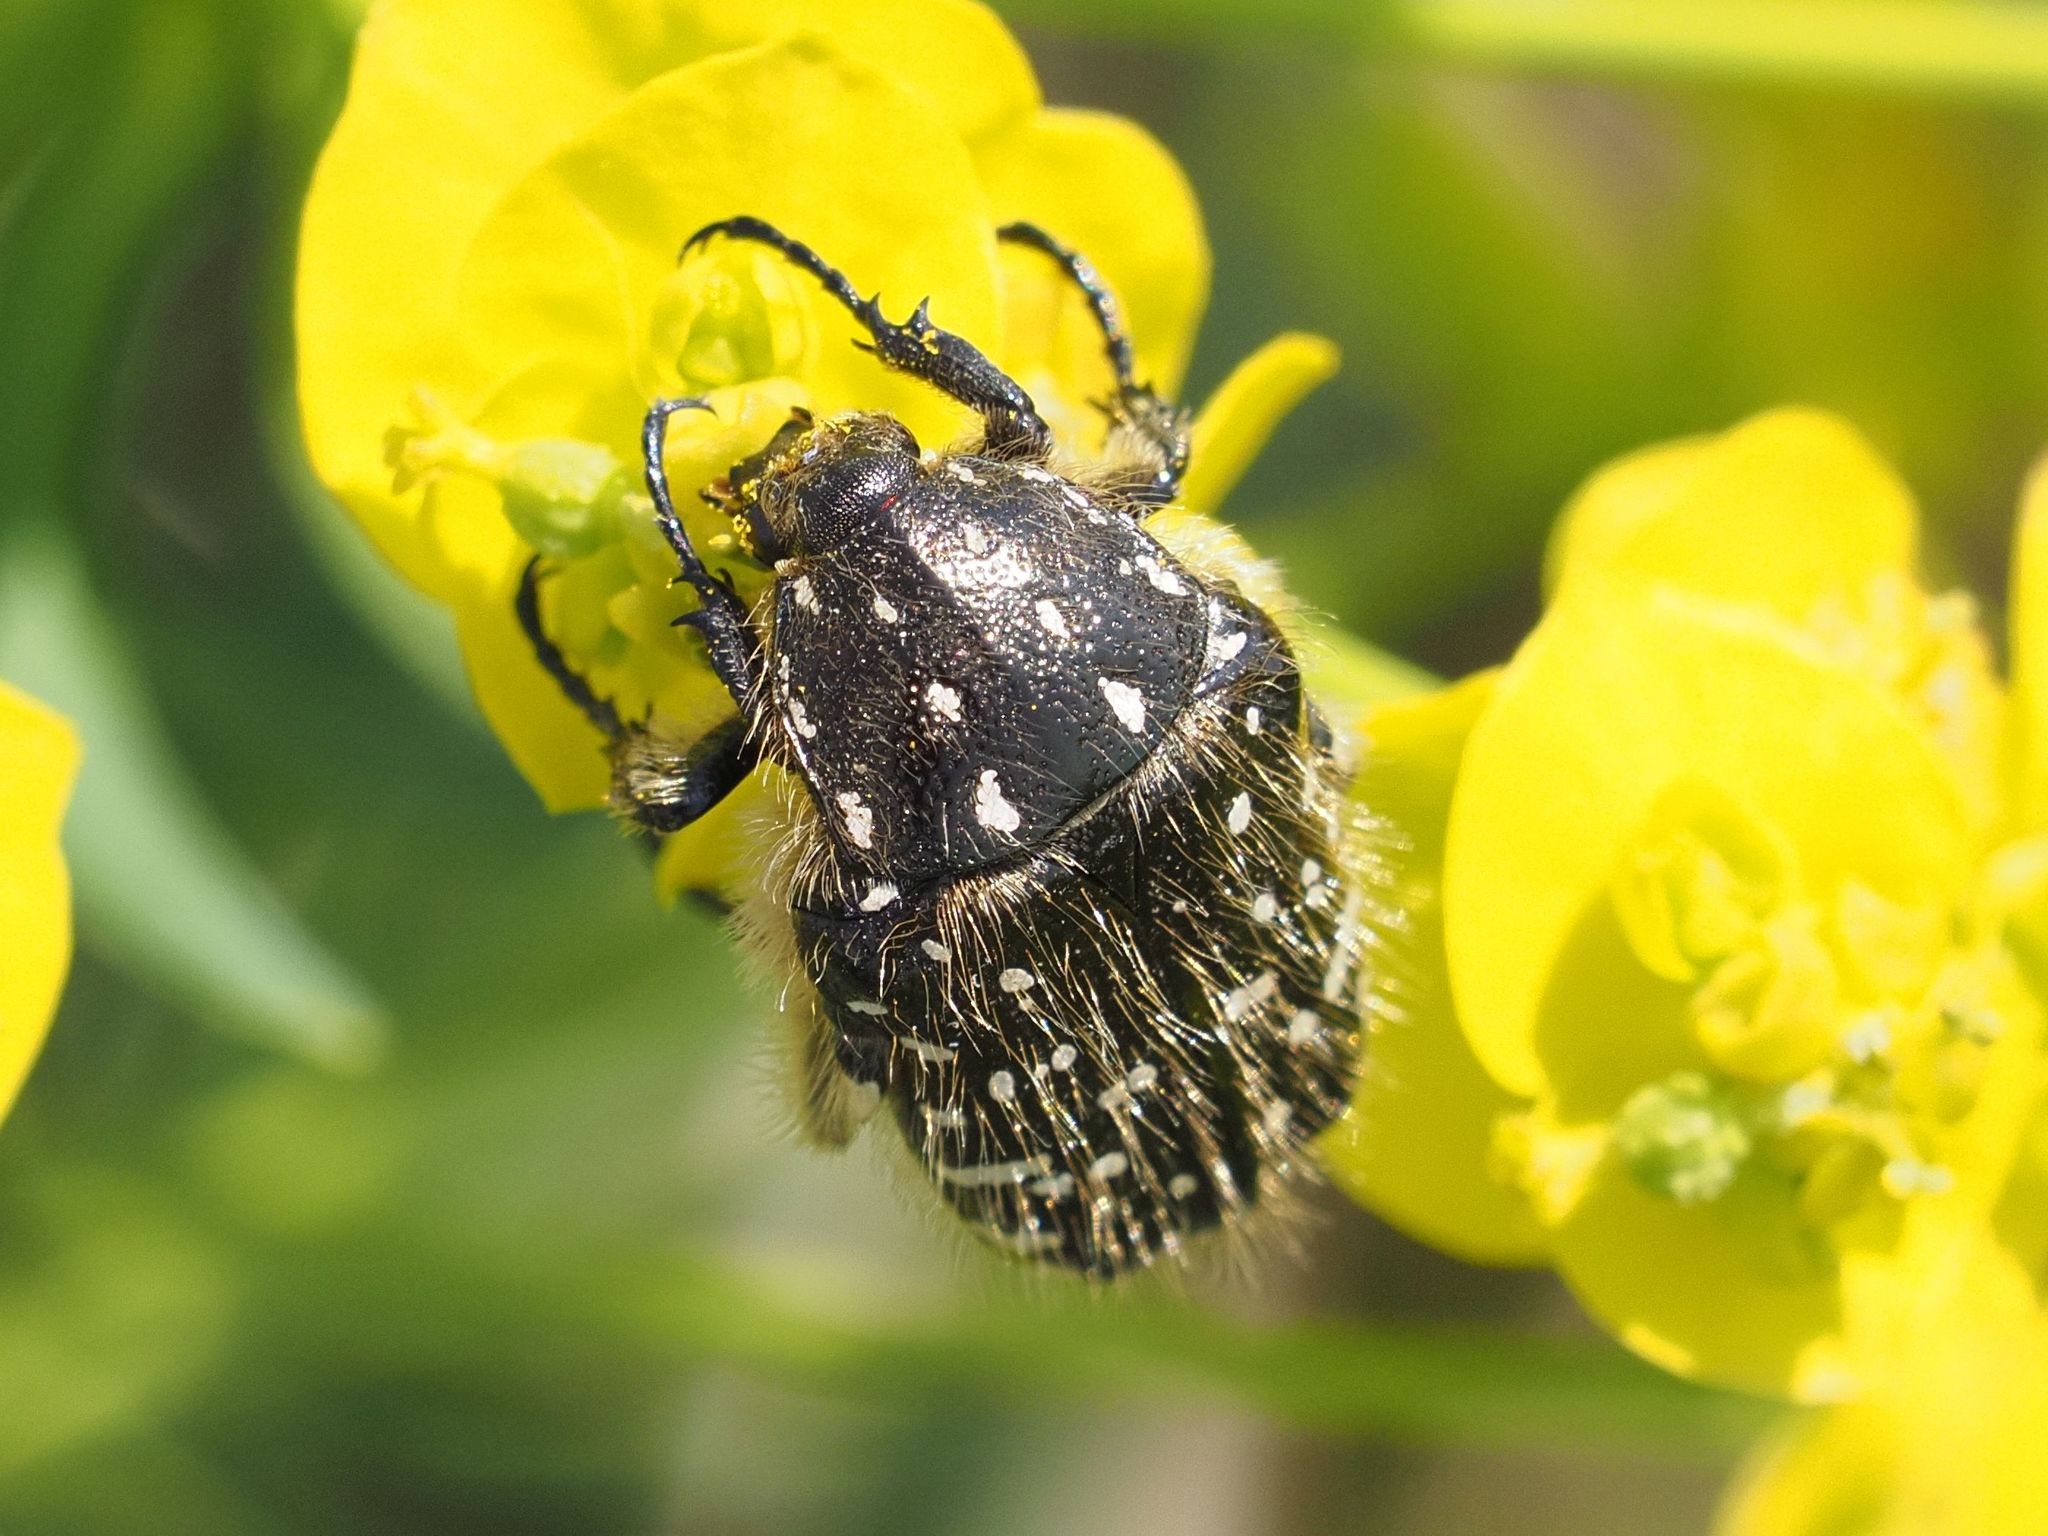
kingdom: Animalia
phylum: Arthropoda
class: Insecta
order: Coleoptera
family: Scarabaeidae
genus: Oxythyrea
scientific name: Oxythyrea funesta
